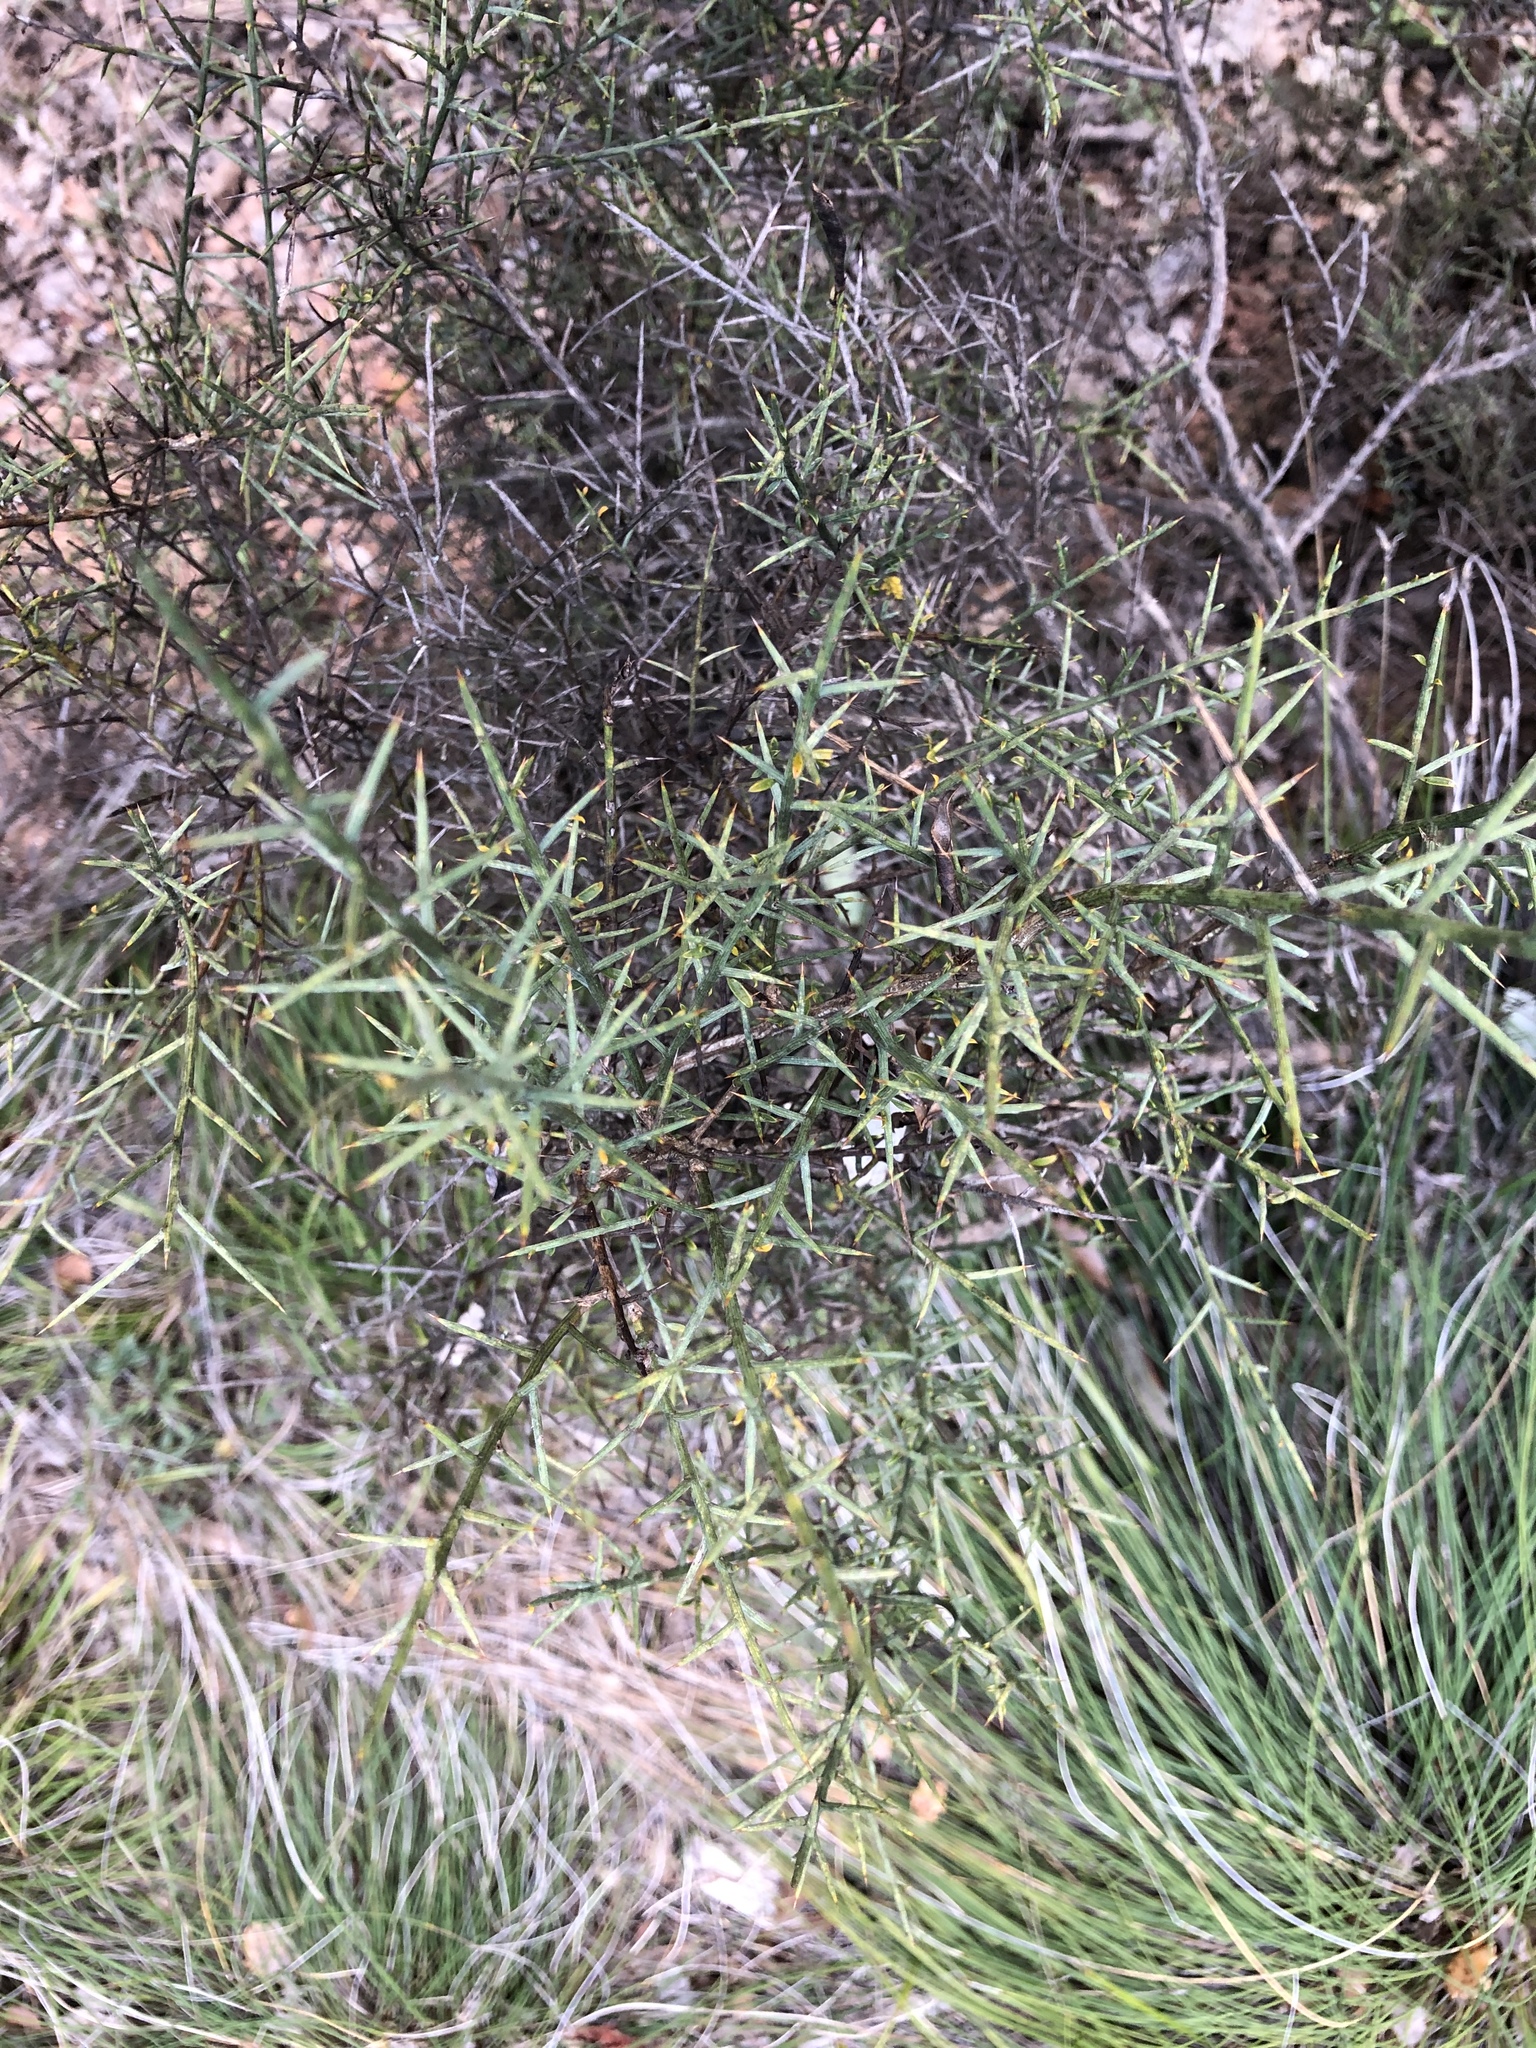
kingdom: Plantae
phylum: Tracheophyta
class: Magnoliopsida
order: Fabales
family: Fabaceae
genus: Genista
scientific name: Genista scorpius
